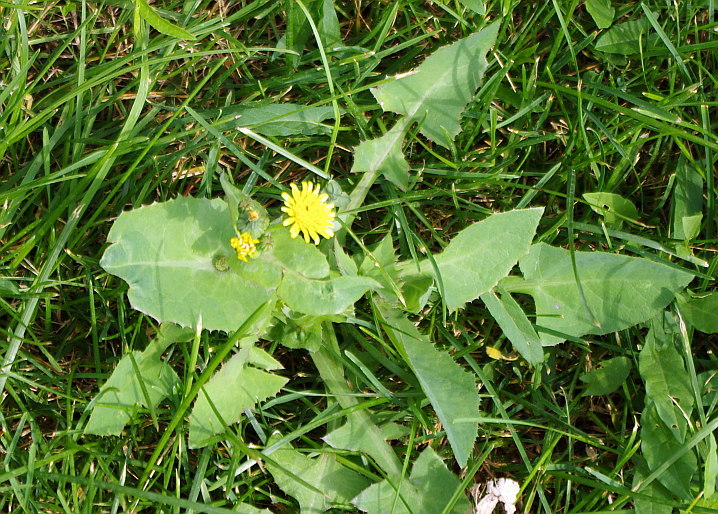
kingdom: Plantae
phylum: Tracheophyta
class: Magnoliopsida
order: Asterales
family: Asteraceae
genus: Sonchus
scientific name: Sonchus oleraceus
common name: Common sowthistle
